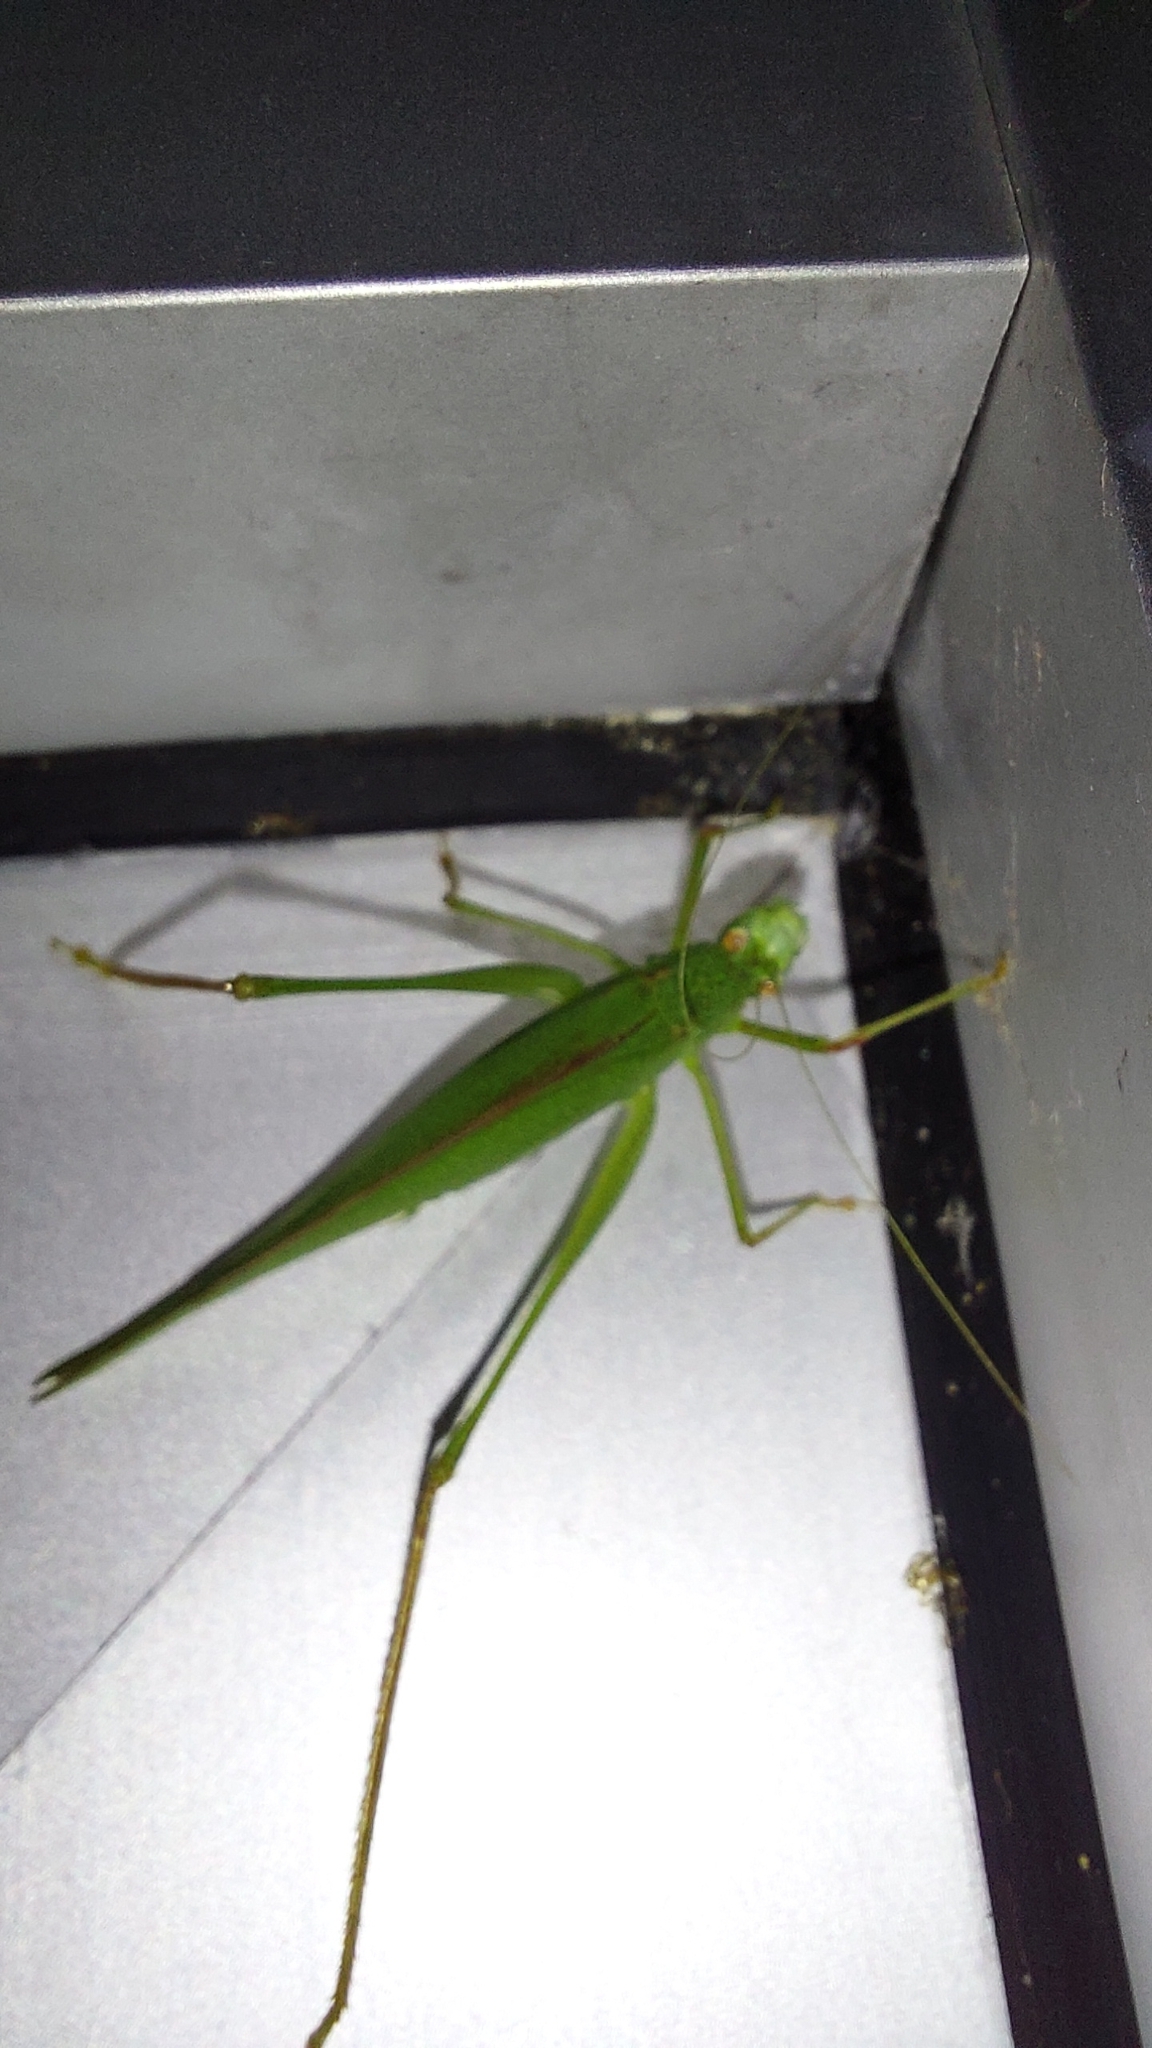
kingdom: Animalia
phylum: Arthropoda
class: Insecta
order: Orthoptera
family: Tettigoniidae
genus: Phaneroptera
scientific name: Phaneroptera nana
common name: Southern sickle bush-cricket
